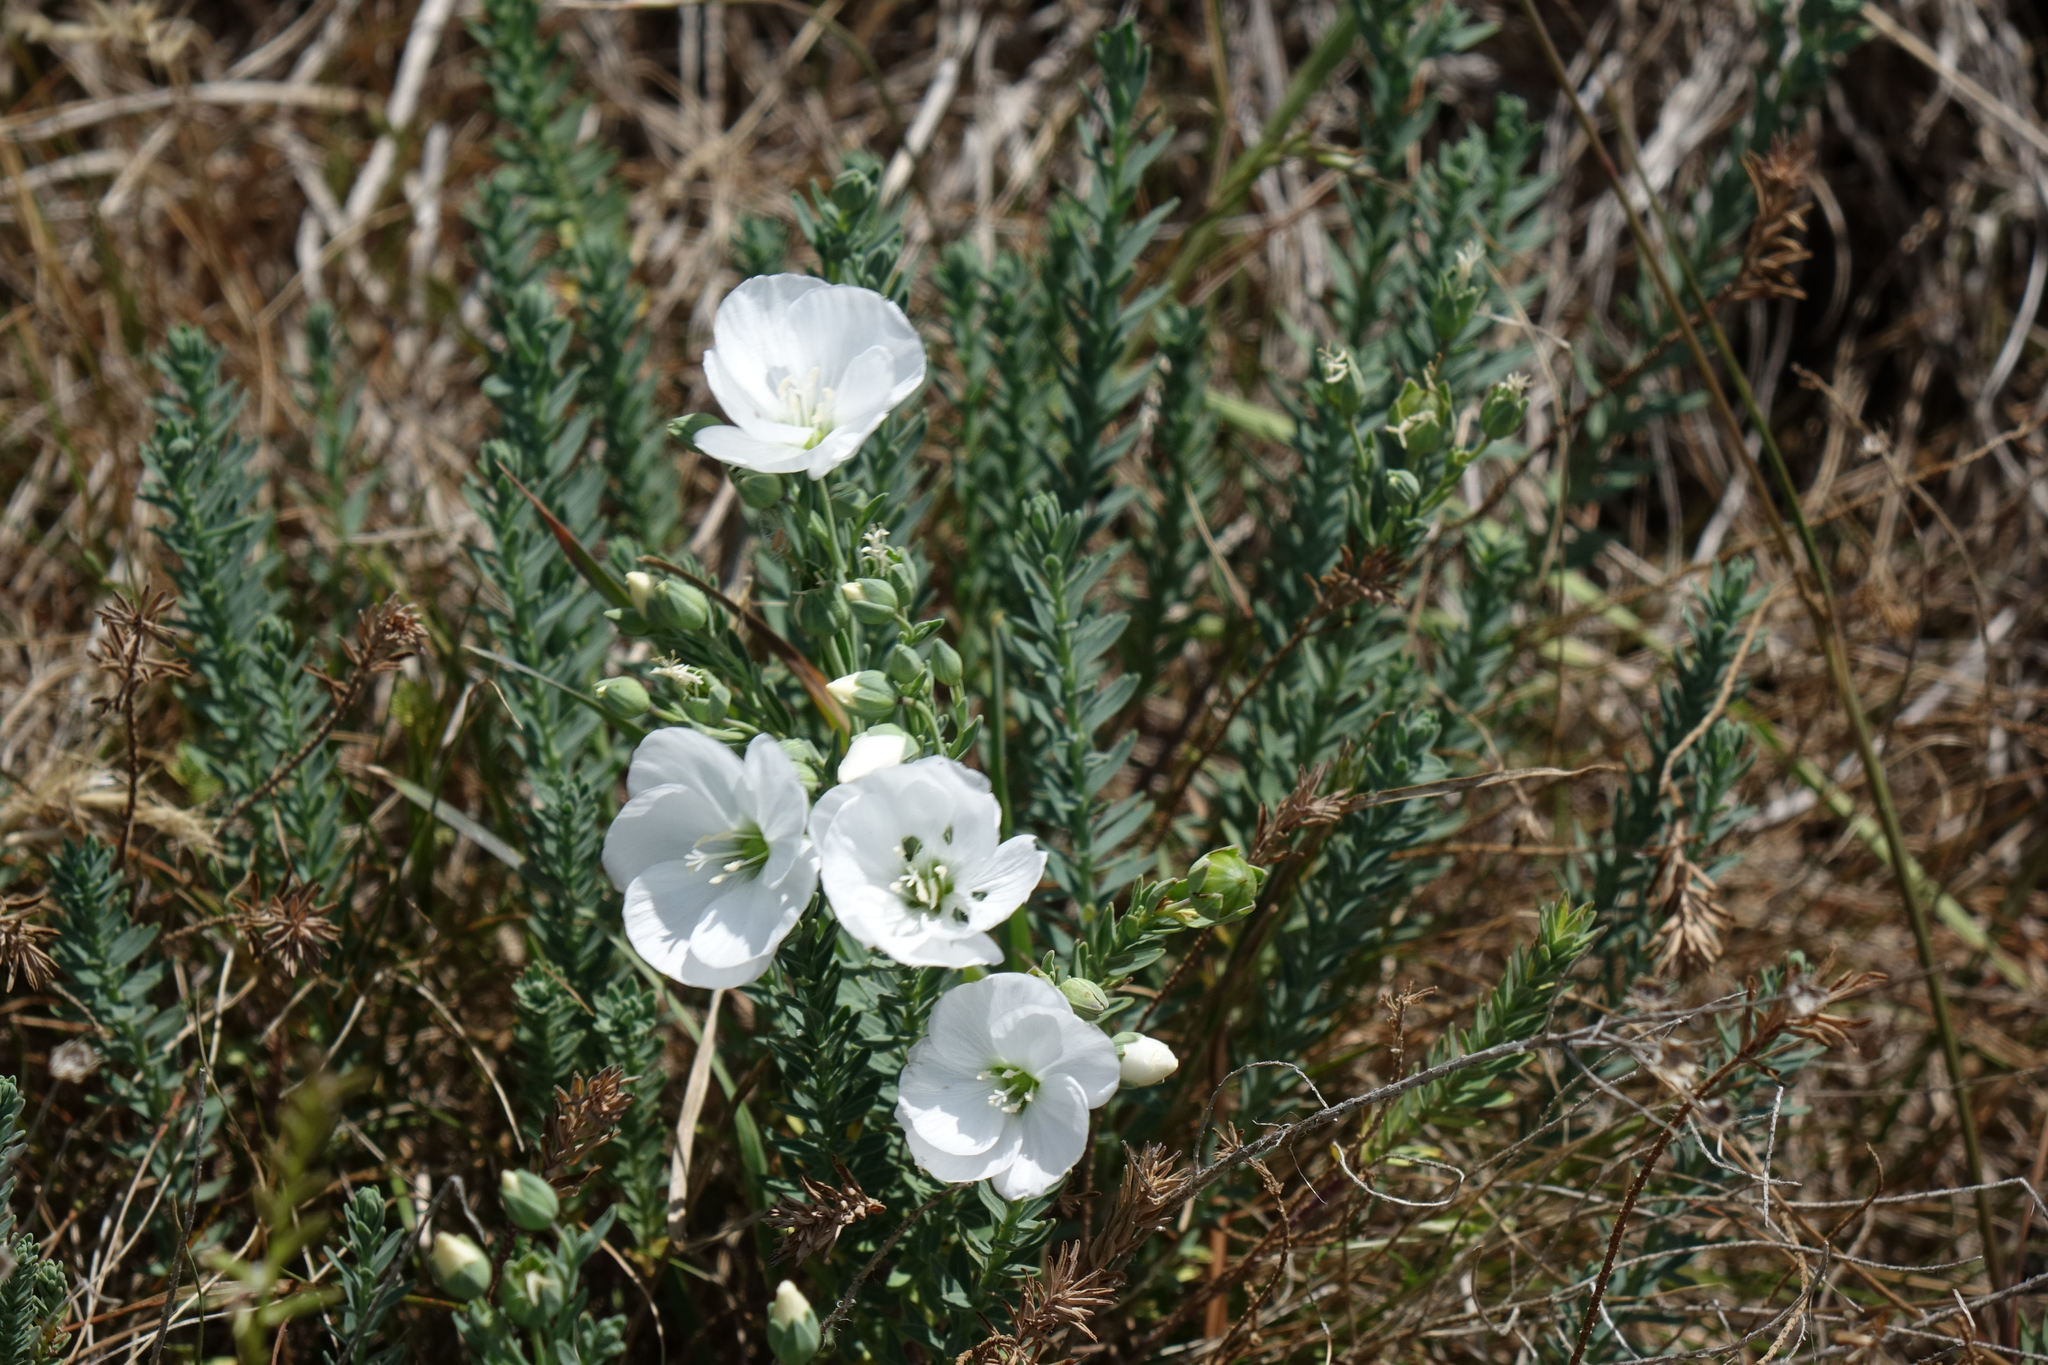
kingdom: Plantae
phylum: Tracheophyta
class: Magnoliopsida
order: Malpighiales
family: Linaceae
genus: Linum
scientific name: Linum monogynum
